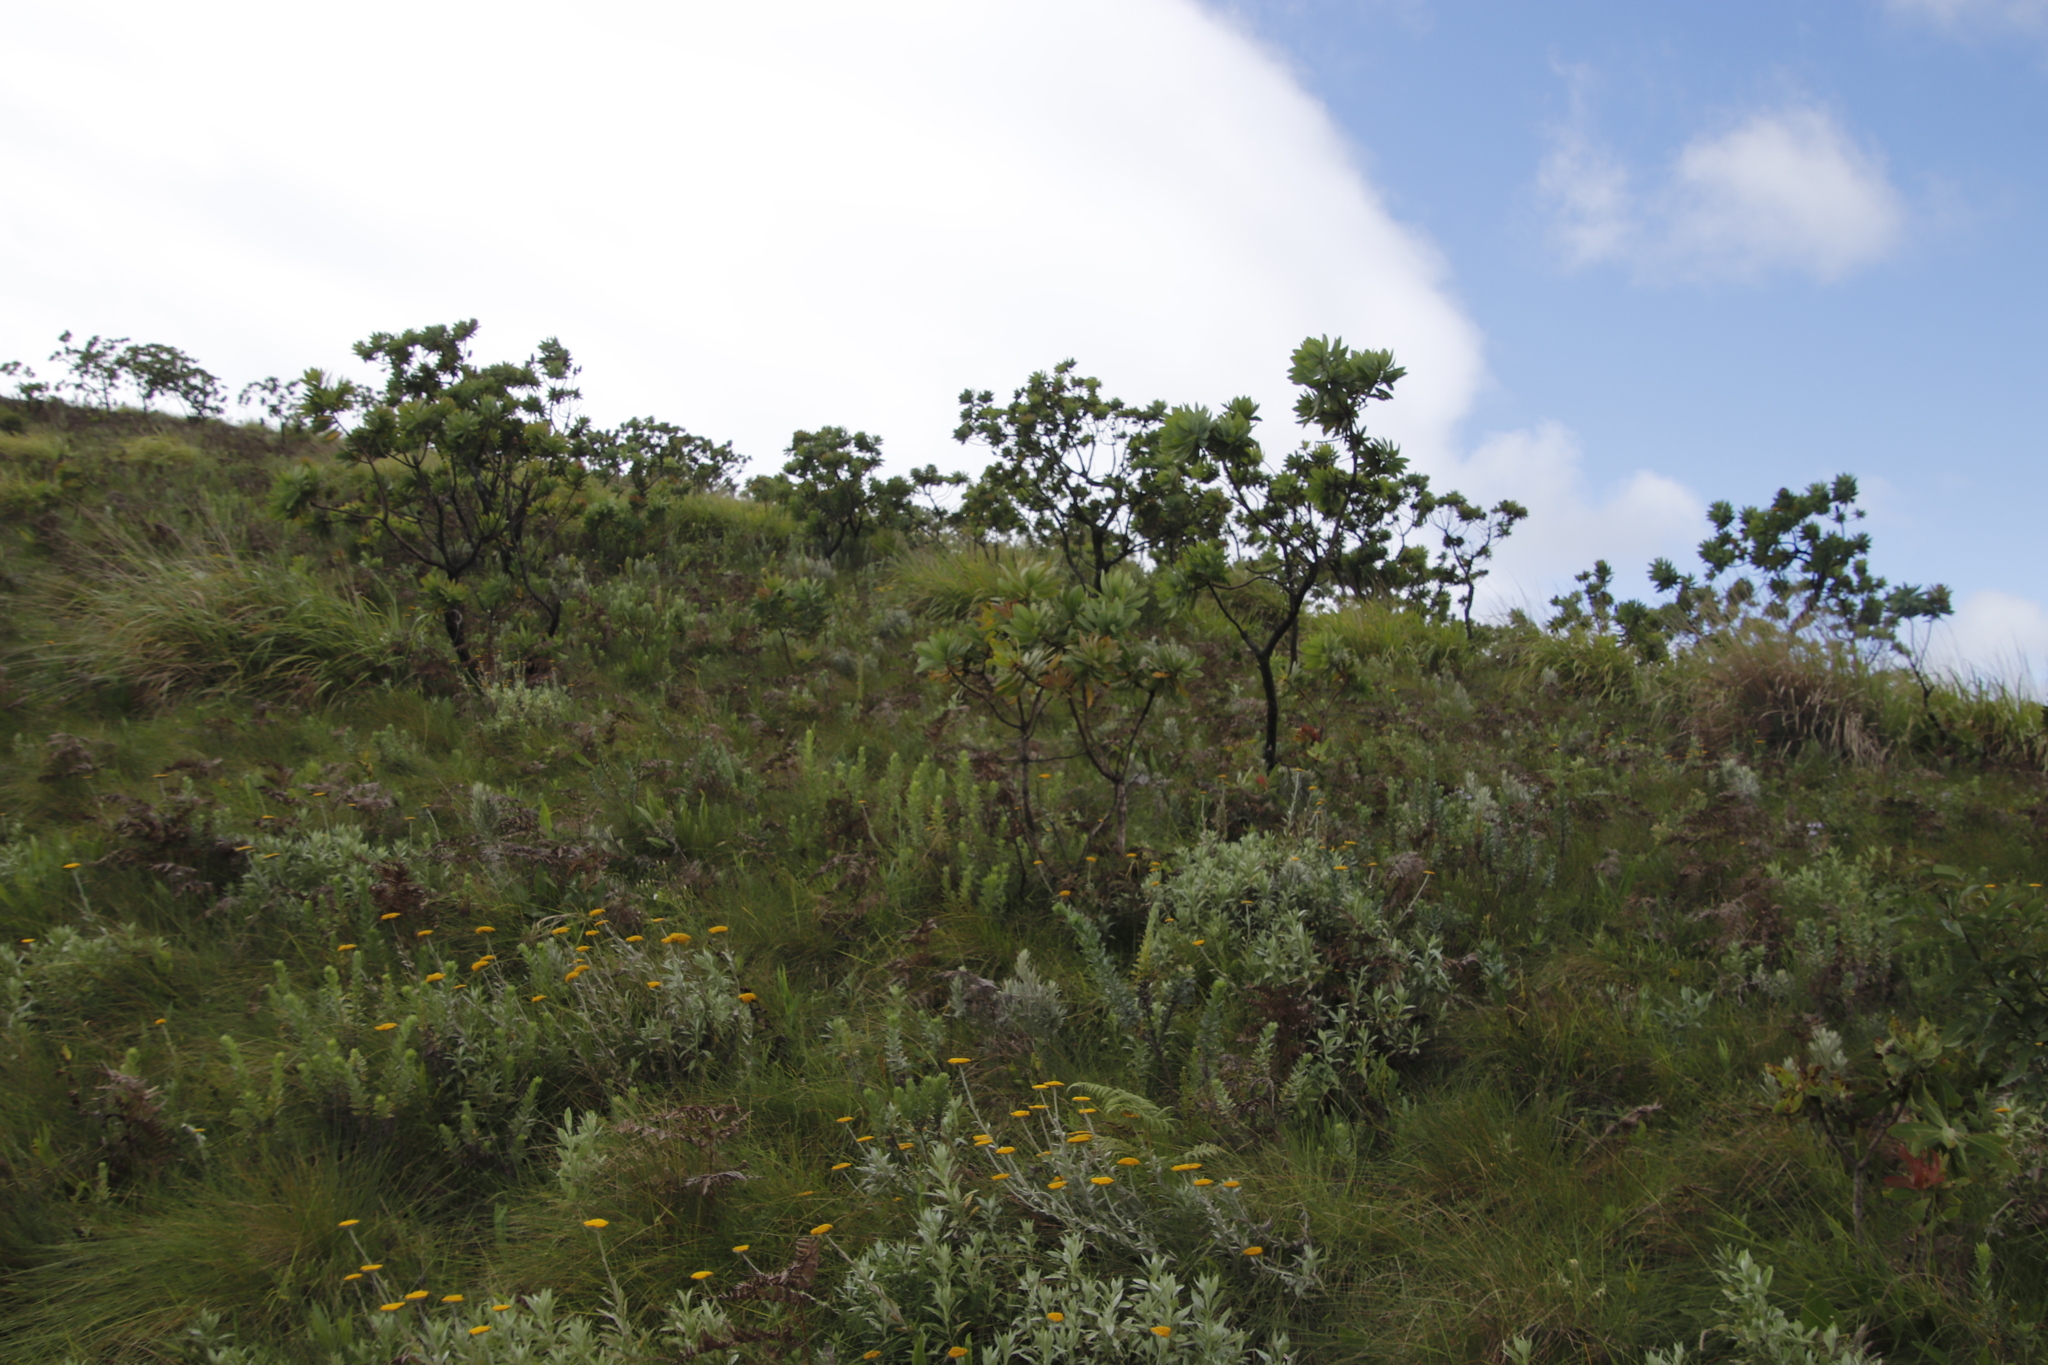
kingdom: Plantae
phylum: Tracheophyta
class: Magnoliopsida
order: Proteales
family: Proteaceae
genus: Protea
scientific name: Protea caffra
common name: Common sugarbush
